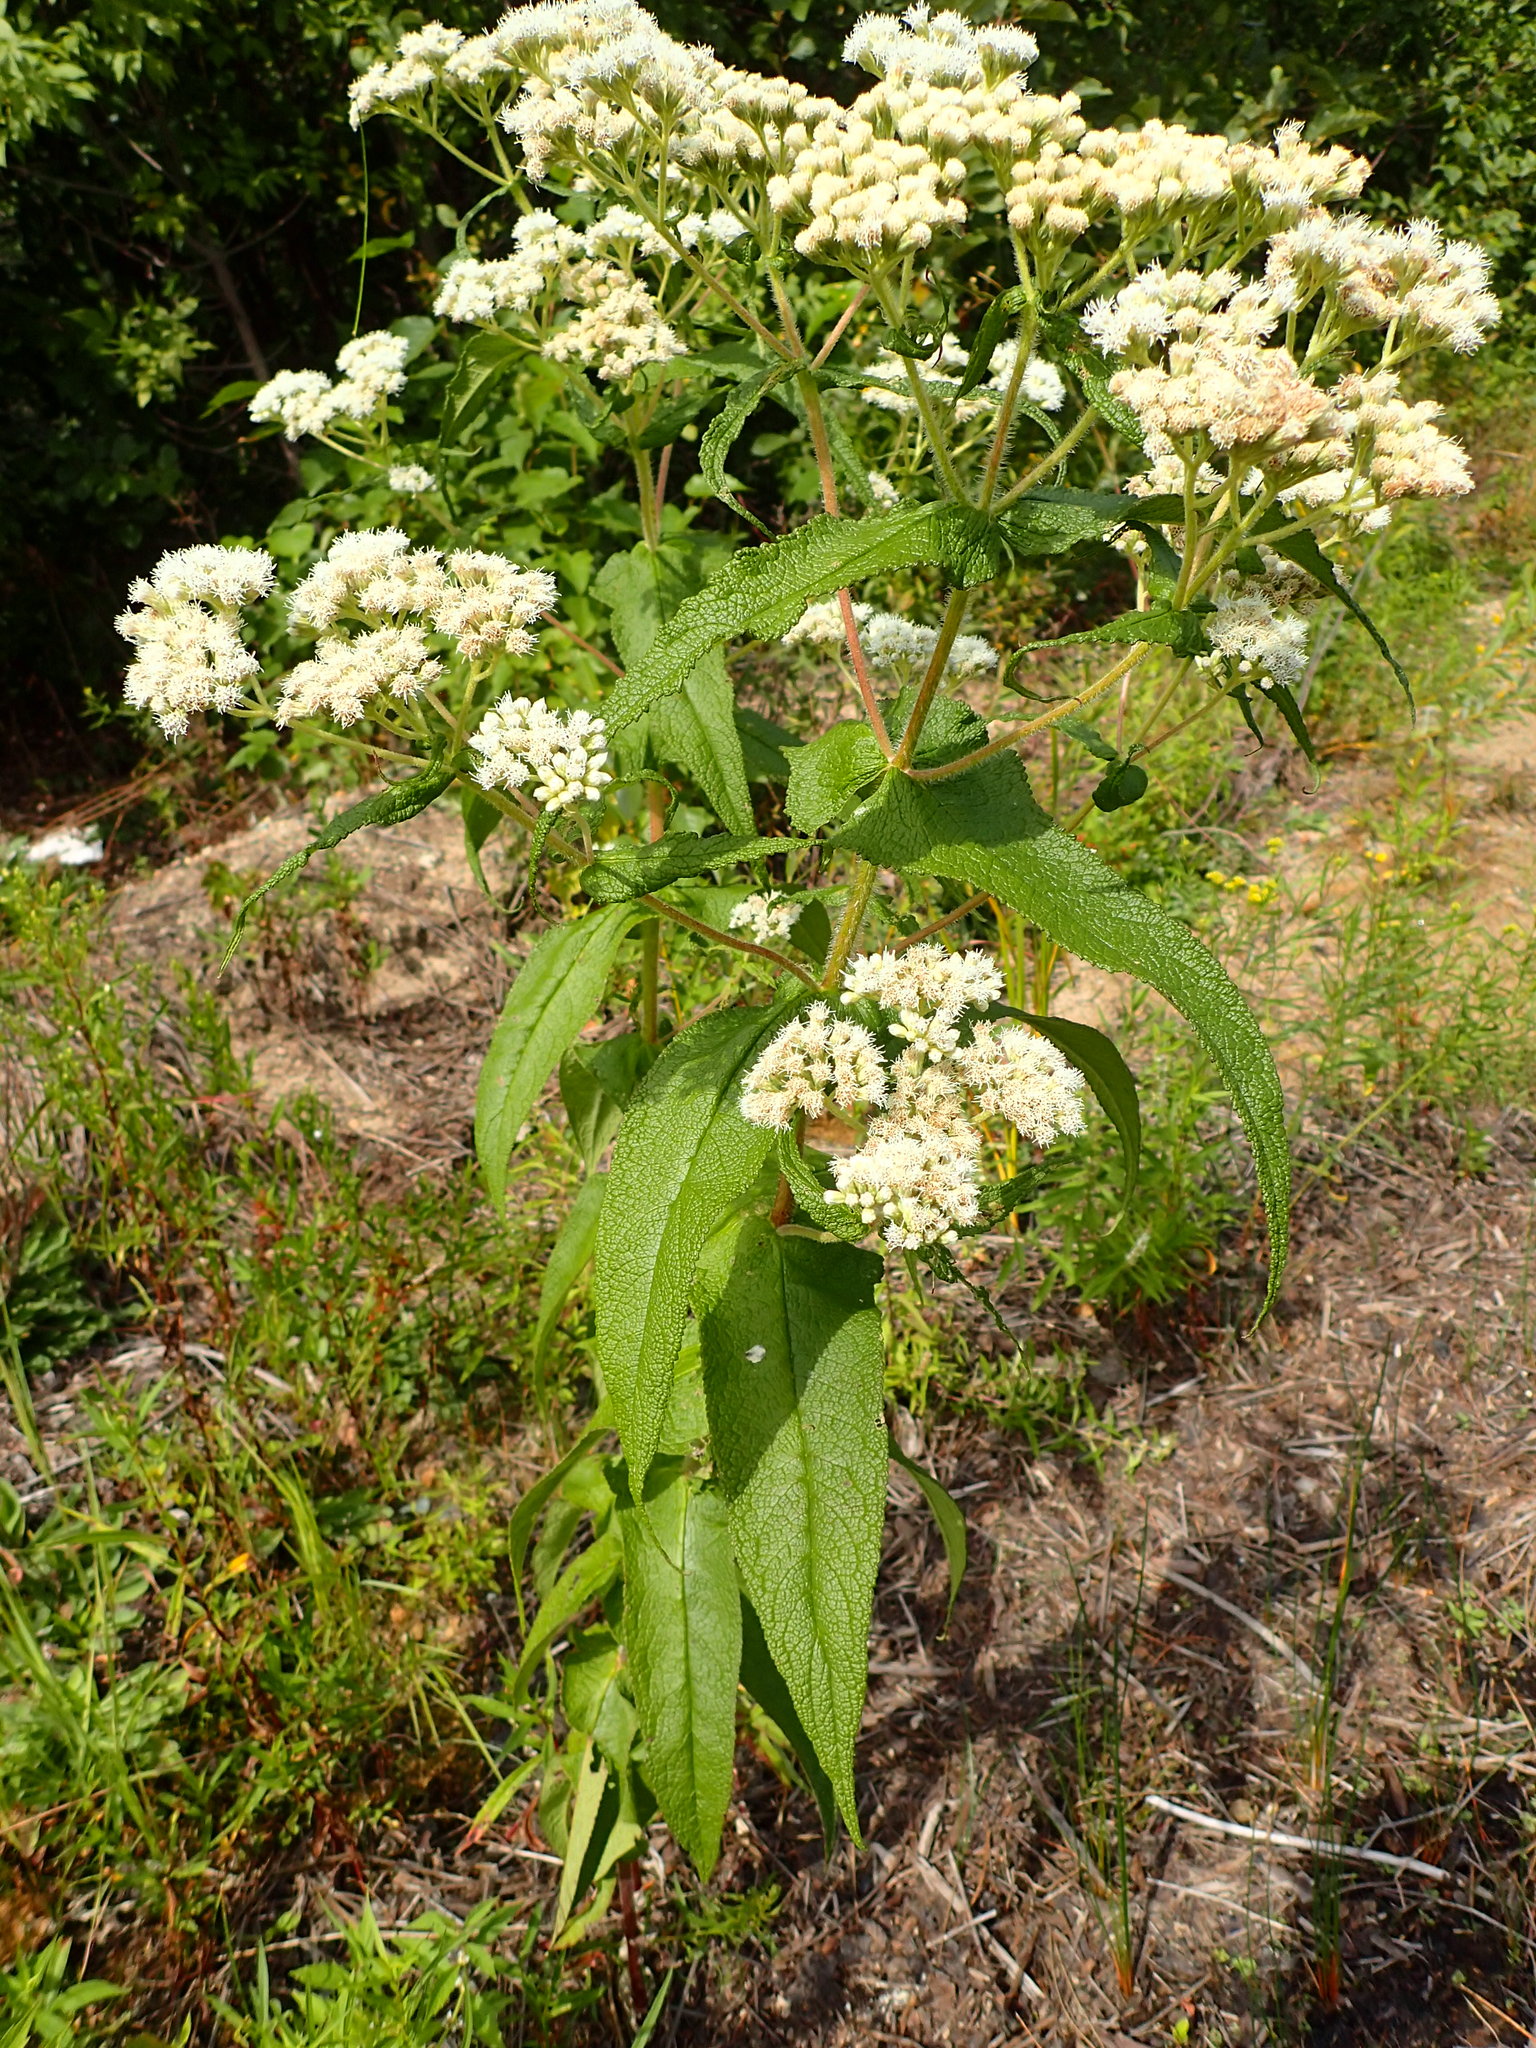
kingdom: Plantae
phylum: Tracheophyta
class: Magnoliopsida
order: Asterales
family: Asteraceae
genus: Eupatorium
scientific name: Eupatorium perfoliatum
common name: Boneset
